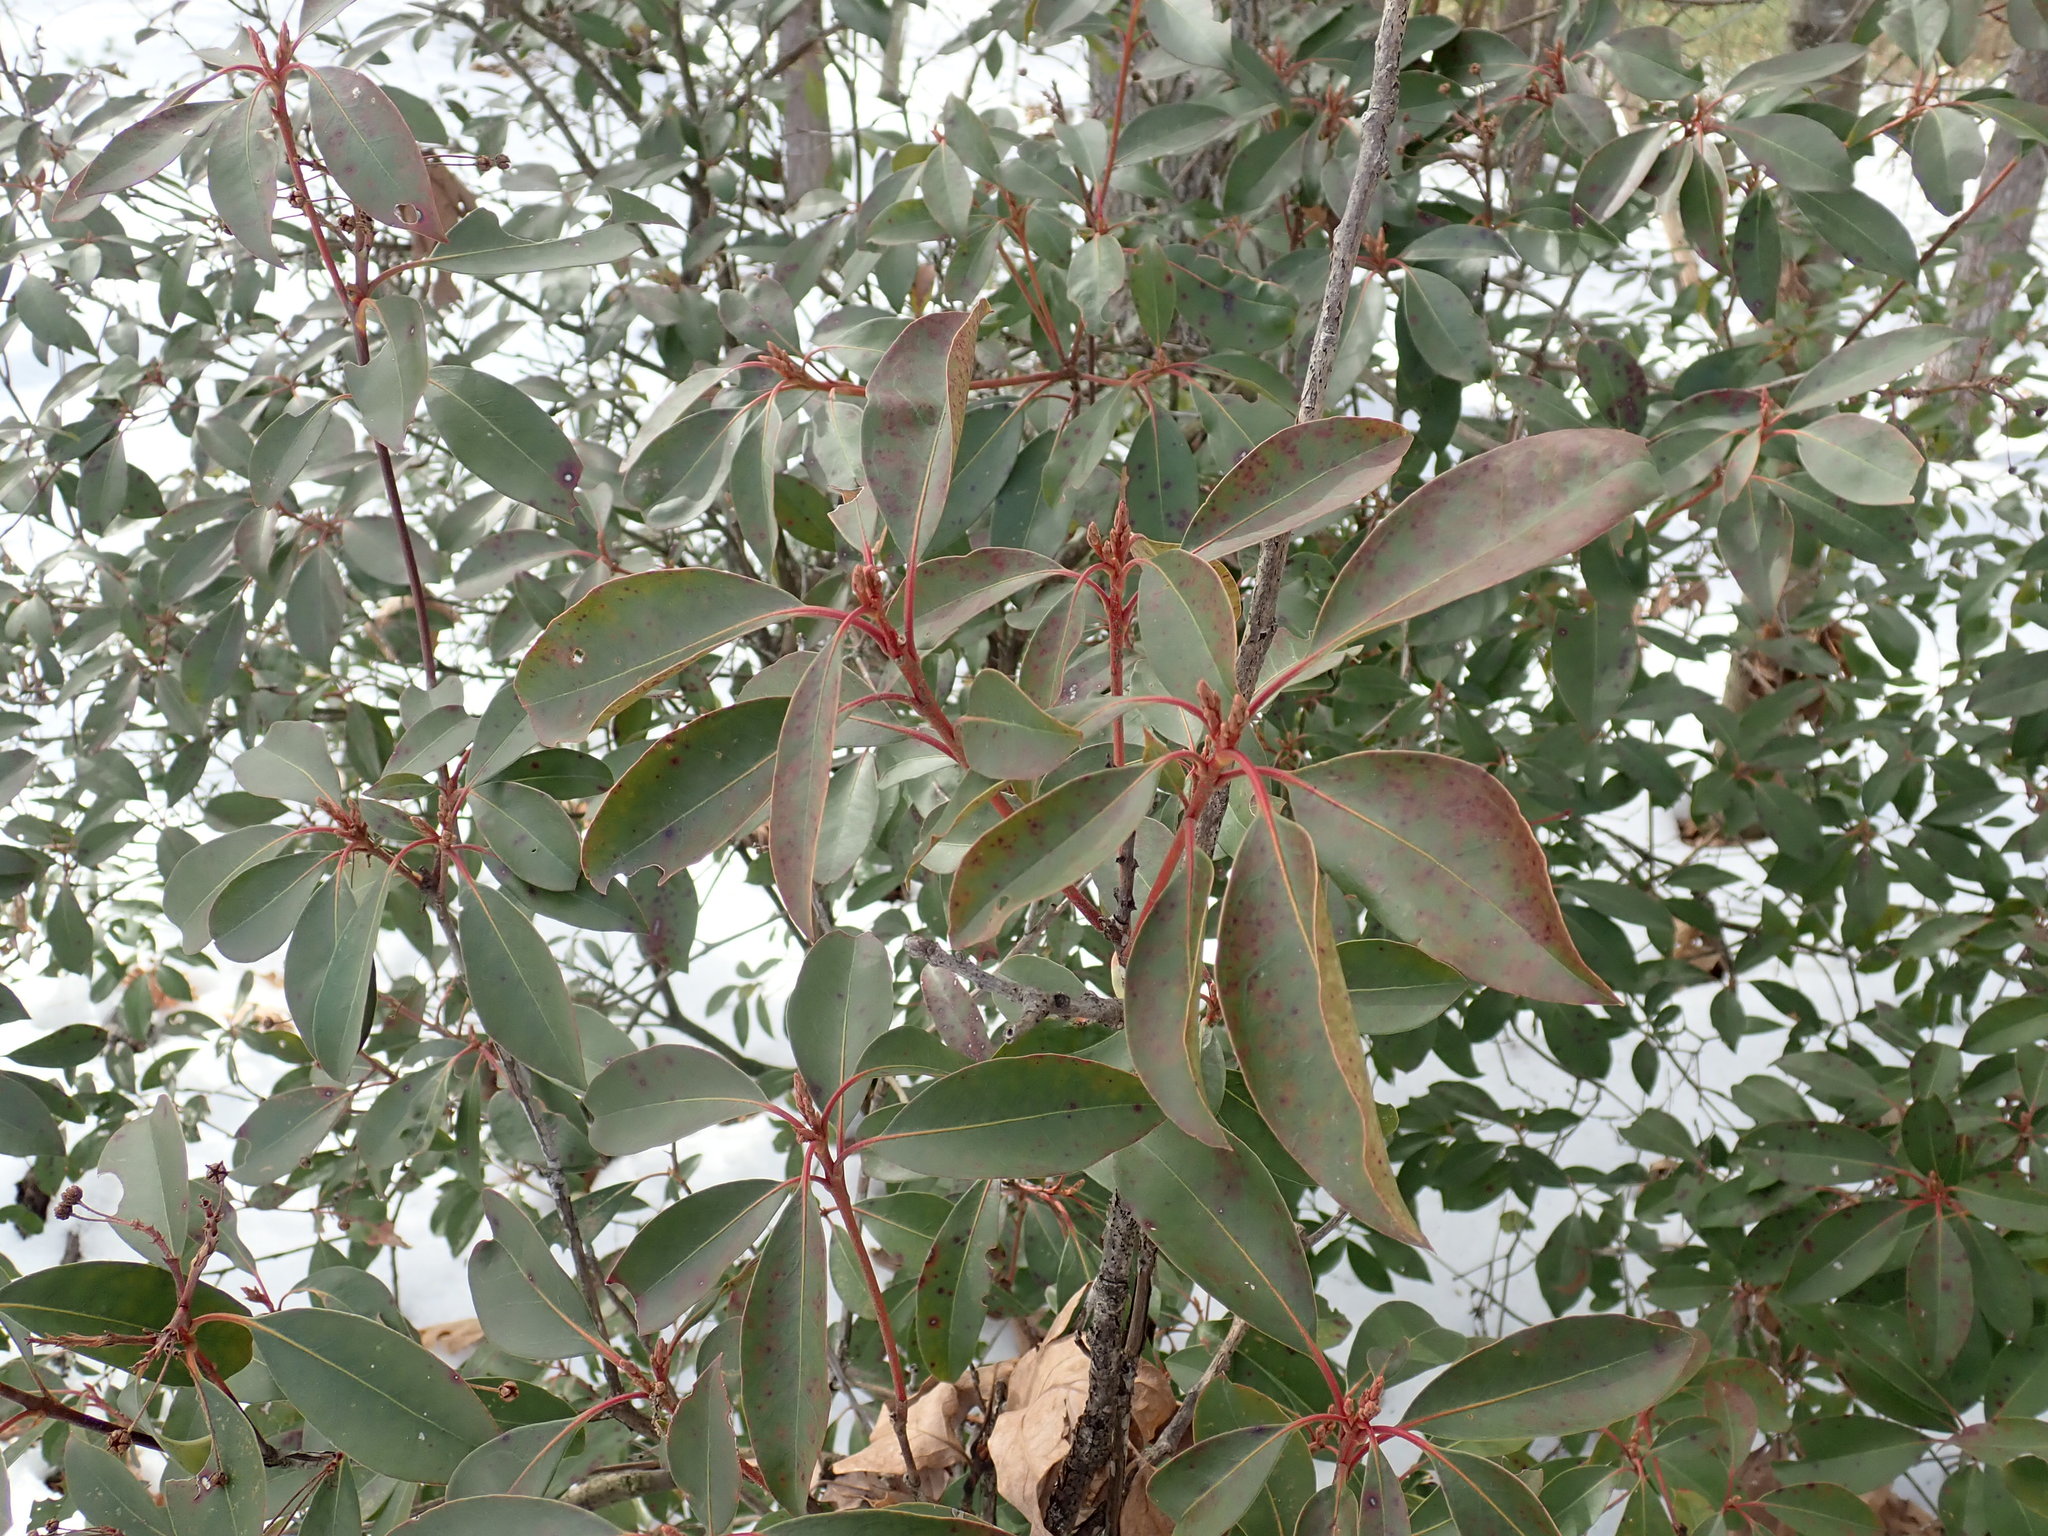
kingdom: Plantae
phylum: Tracheophyta
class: Magnoliopsida
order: Ericales
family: Ericaceae
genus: Kalmia
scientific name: Kalmia latifolia
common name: Mountain-laurel
